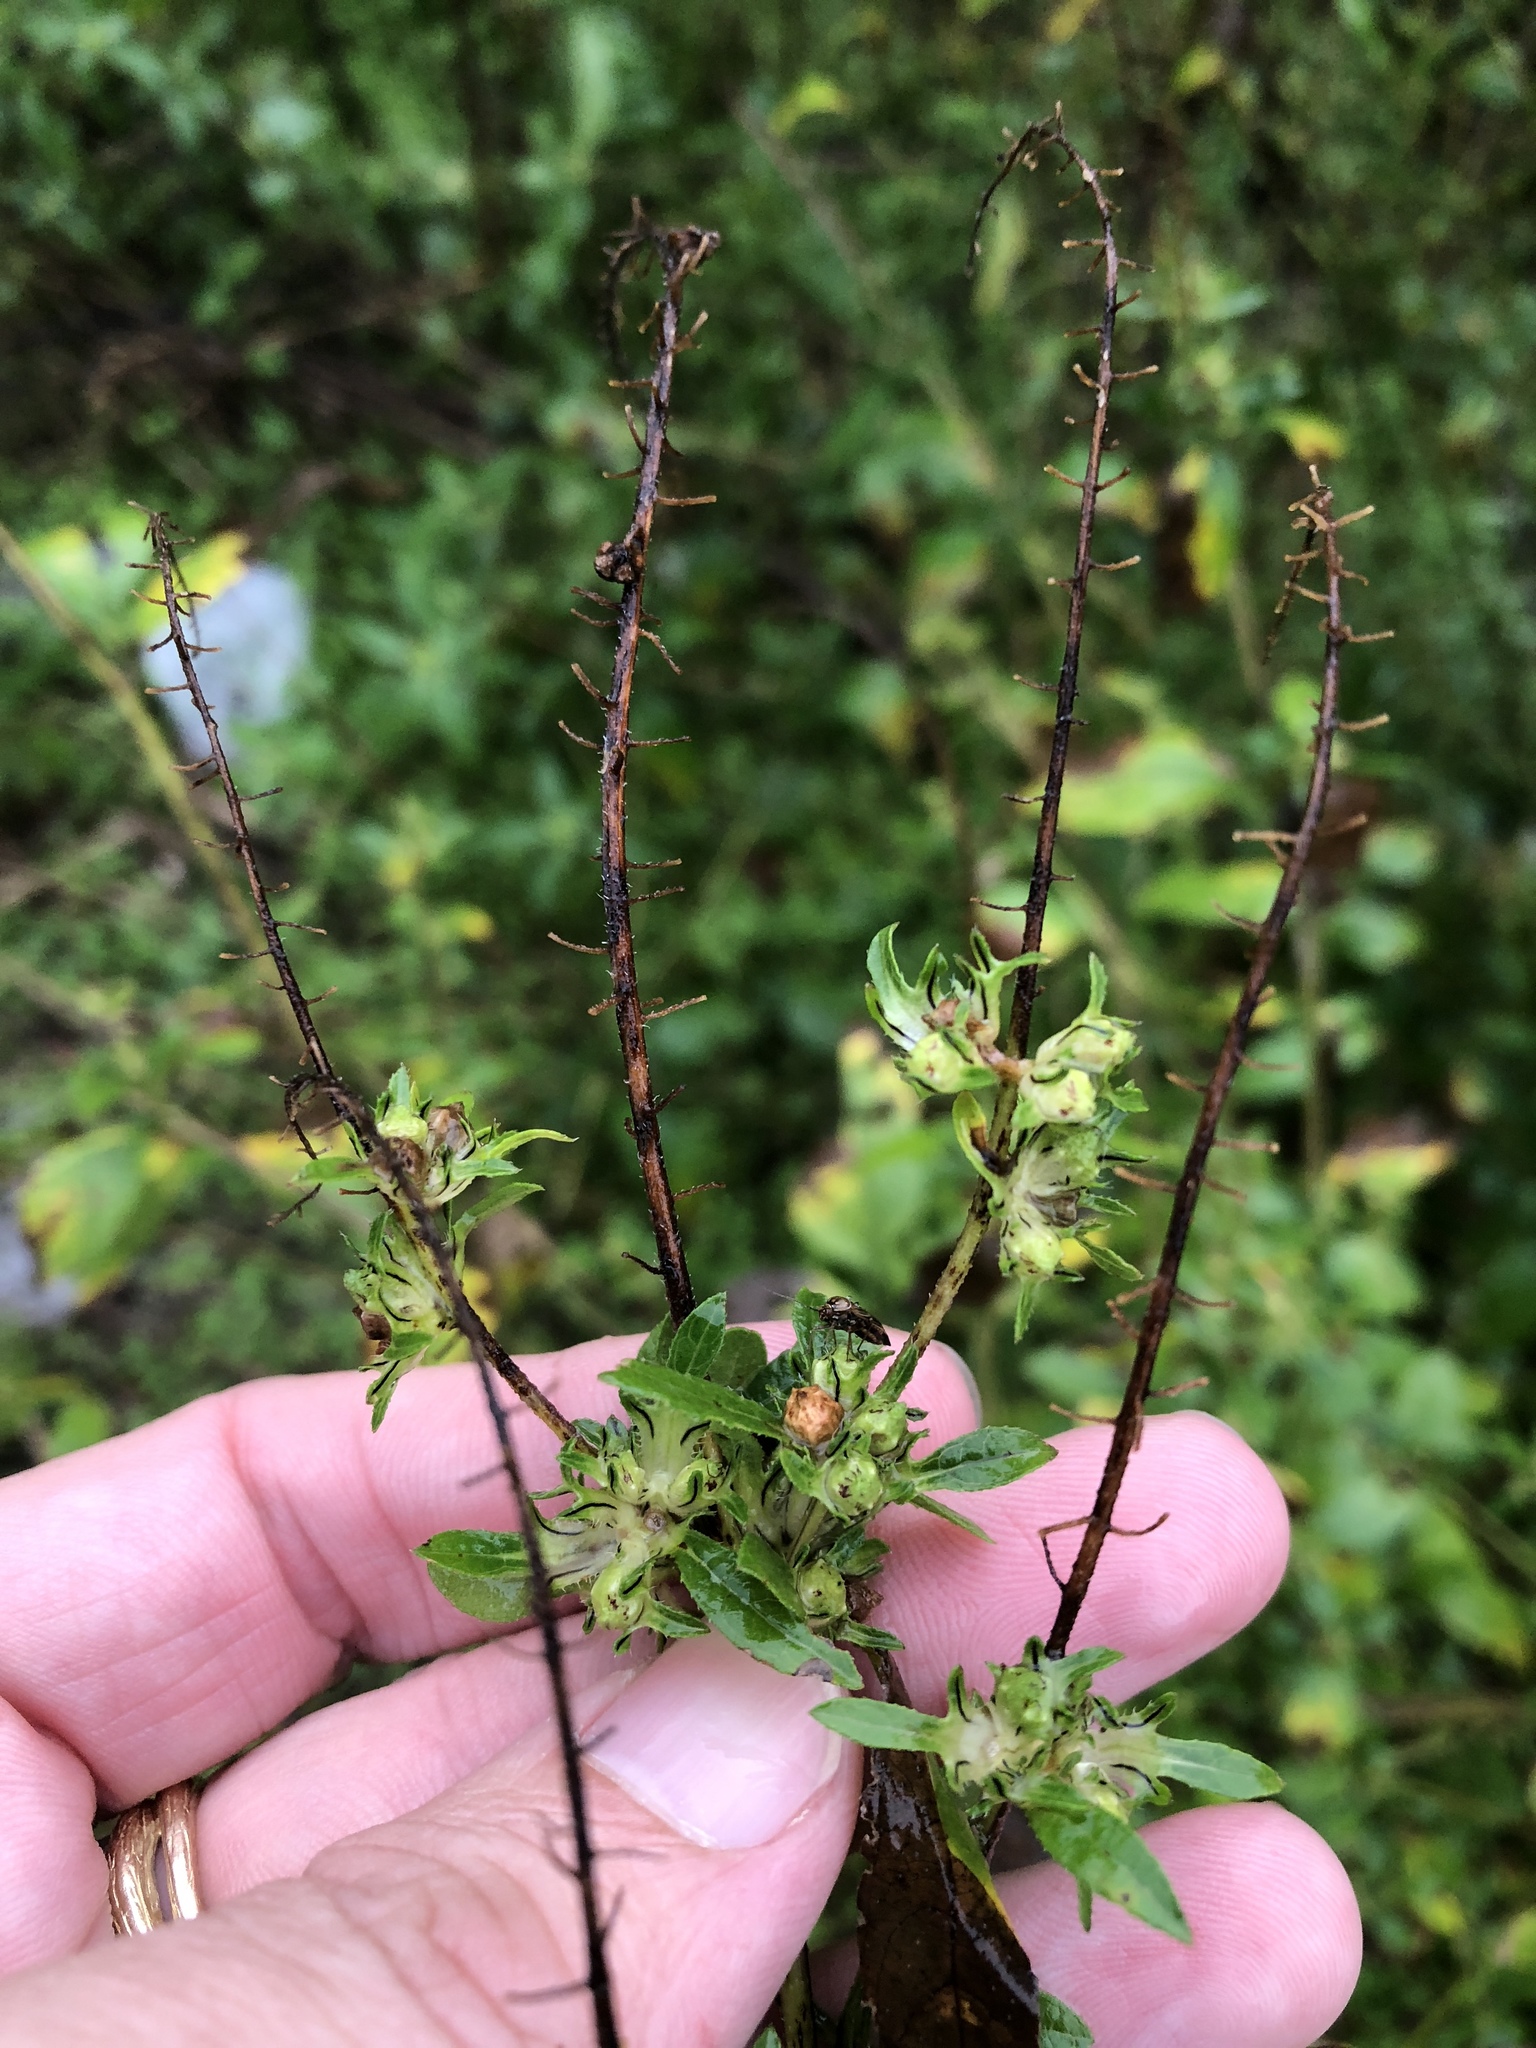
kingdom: Plantae
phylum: Tracheophyta
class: Magnoliopsida
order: Asterales
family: Asteraceae
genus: Ambrosia
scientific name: Ambrosia artemisiifolia
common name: Annual ragweed
